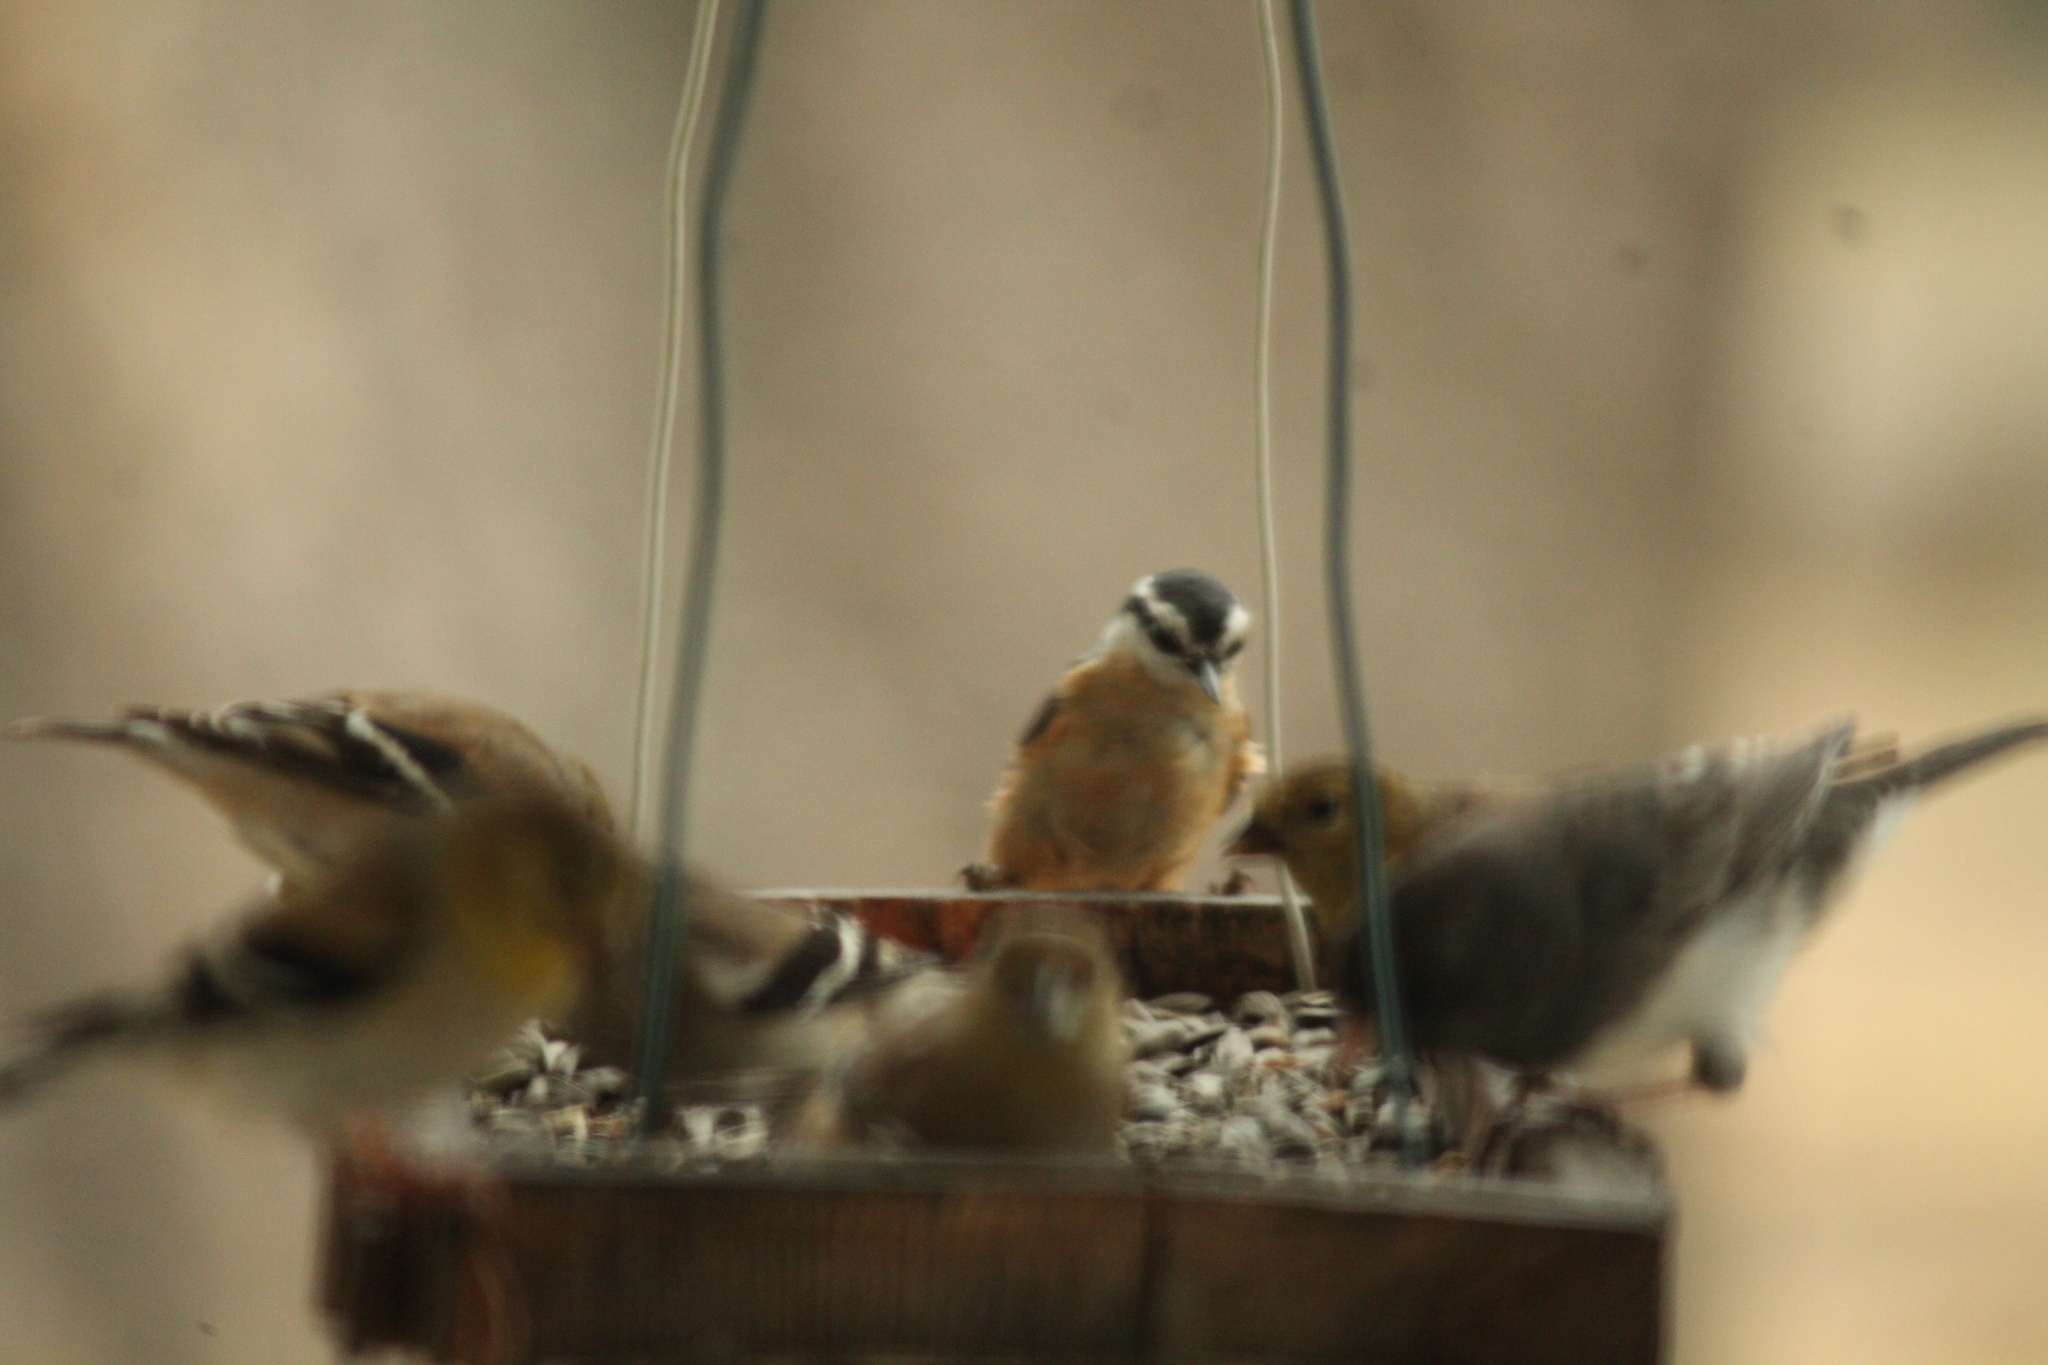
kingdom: Animalia
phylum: Chordata
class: Aves
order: Passeriformes
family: Sittidae
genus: Sitta
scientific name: Sitta canadensis
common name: Red-breasted nuthatch
